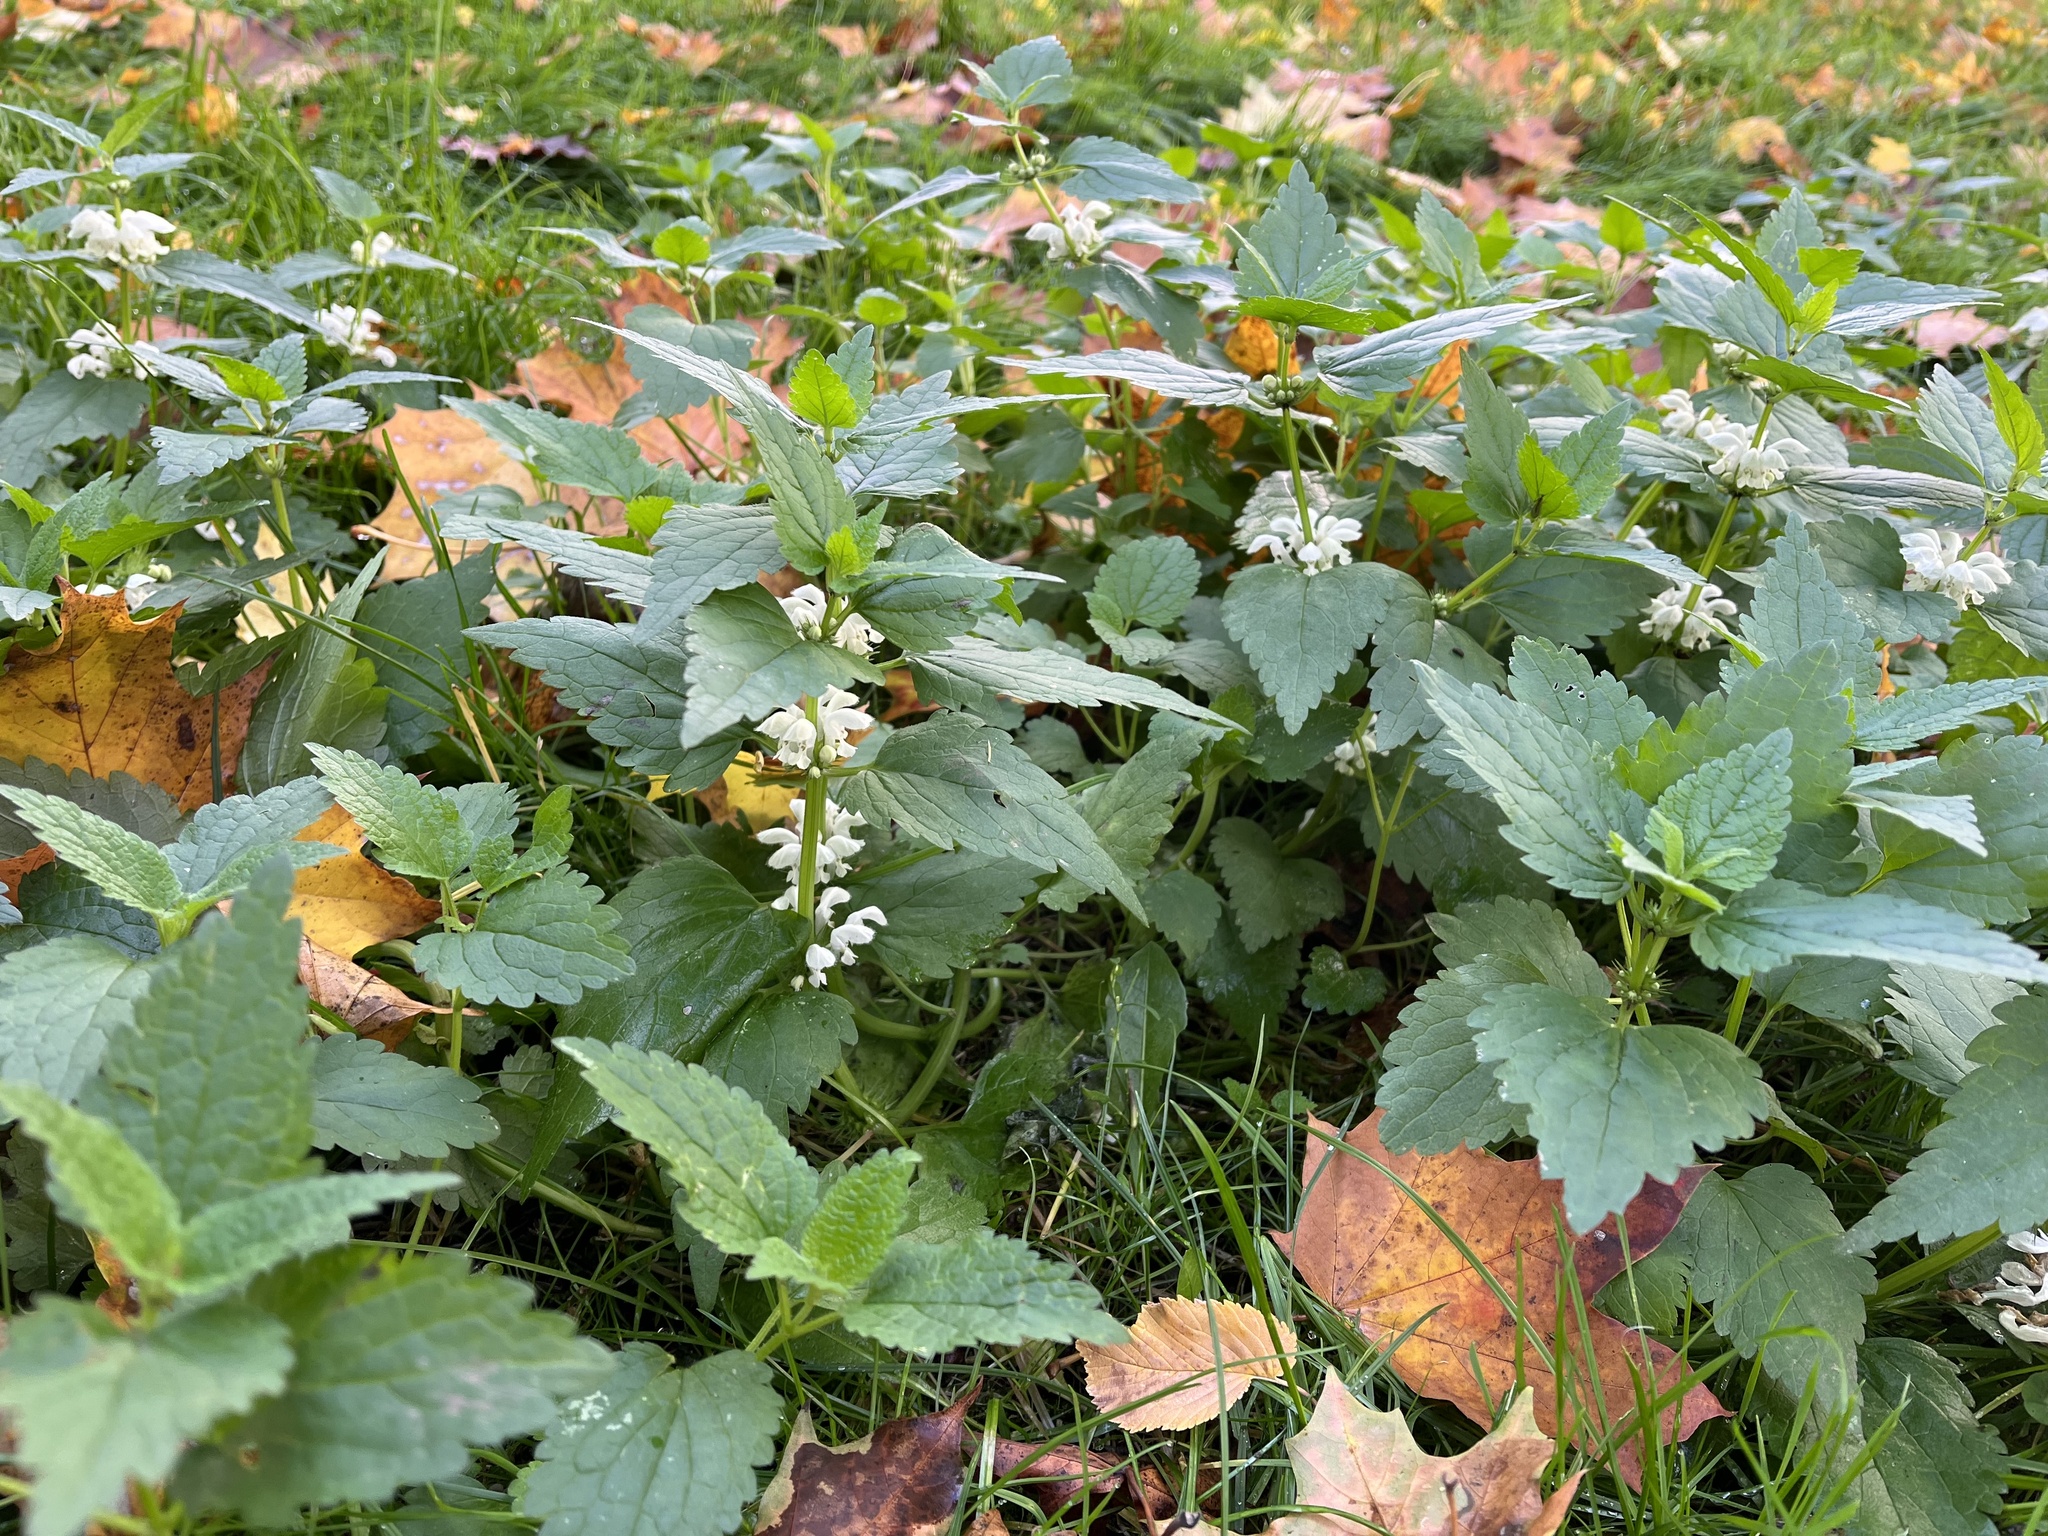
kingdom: Plantae
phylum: Tracheophyta
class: Magnoliopsida
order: Lamiales
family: Lamiaceae
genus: Lamium
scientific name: Lamium album
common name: White dead-nettle
